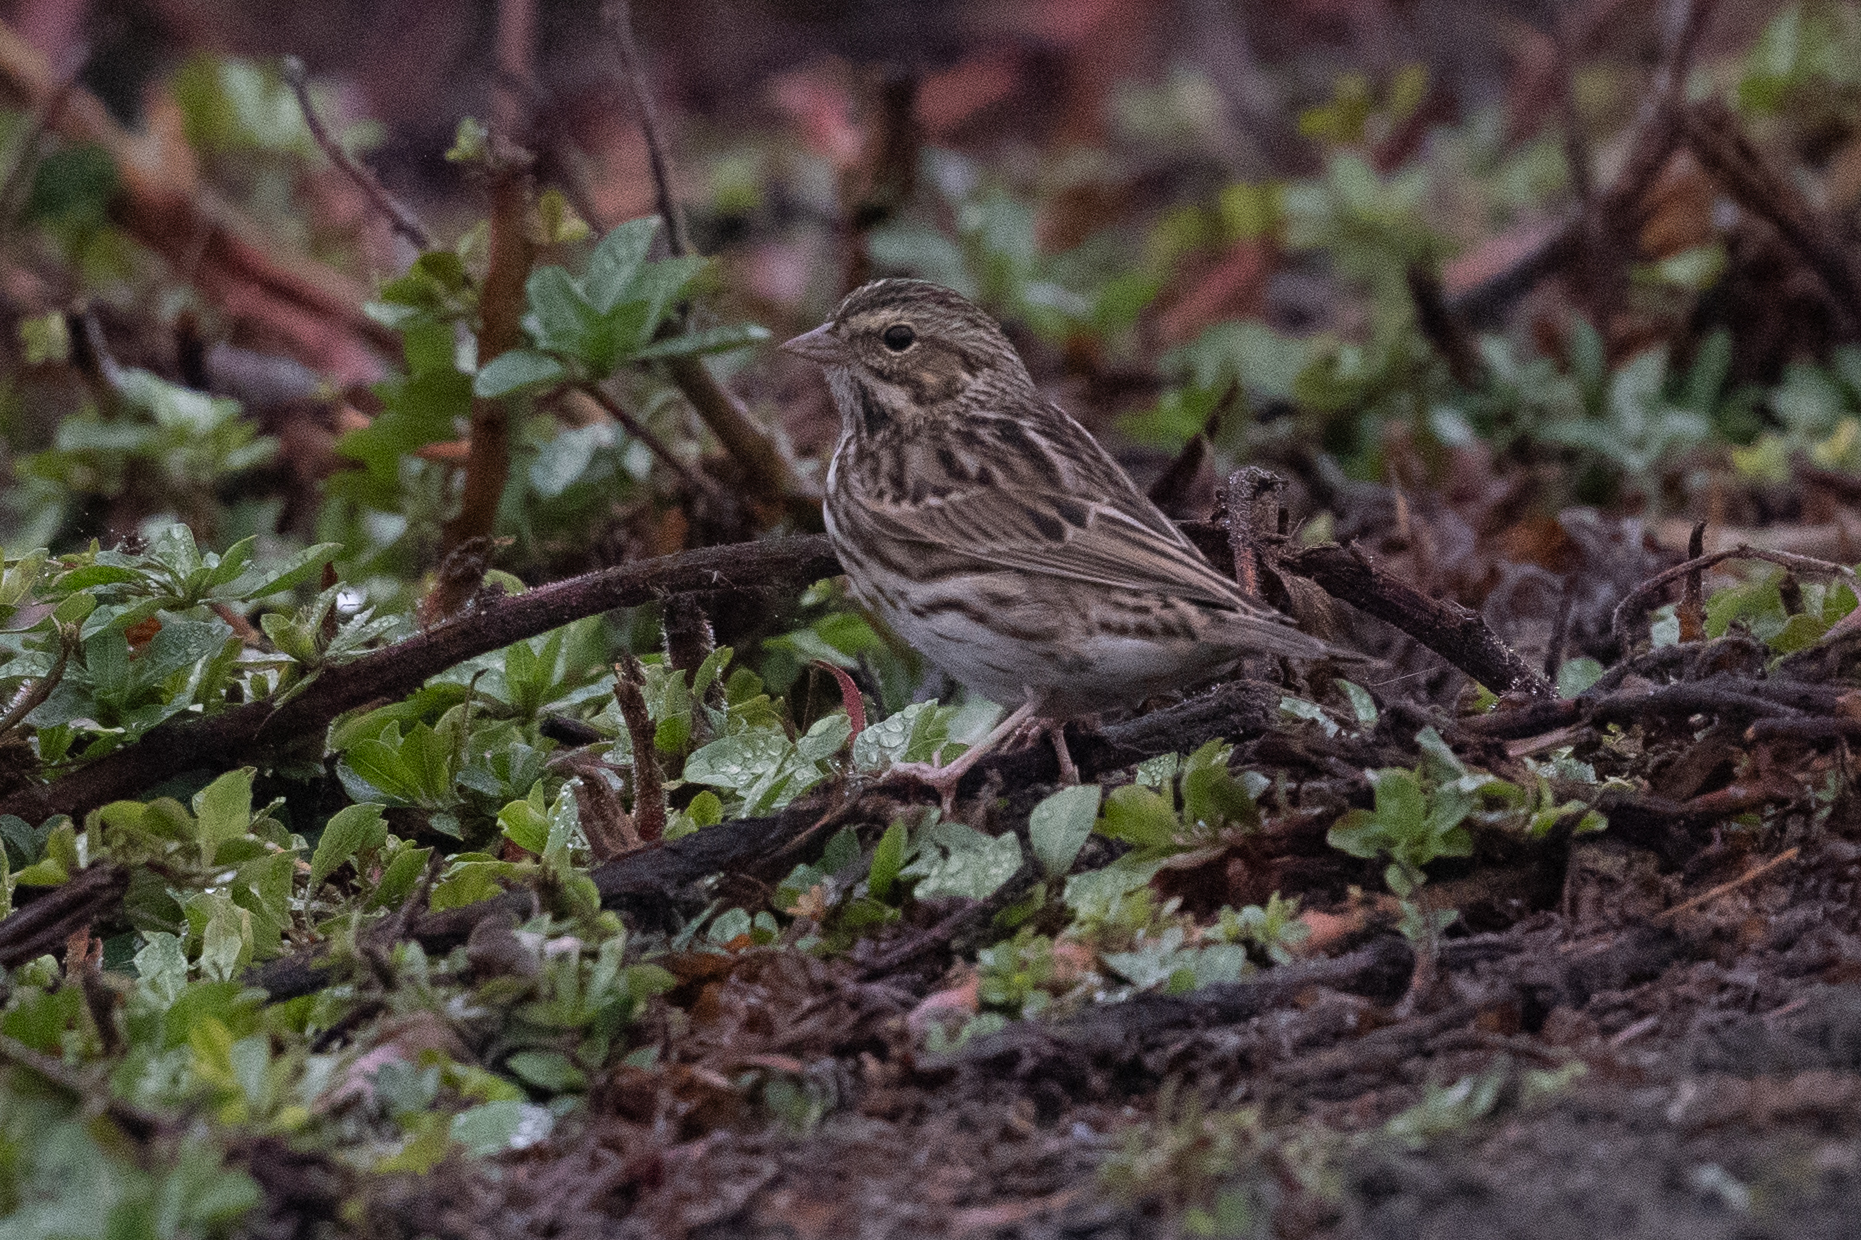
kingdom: Animalia
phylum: Chordata
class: Aves
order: Passeriformes
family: Passerellidae
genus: Passerculus
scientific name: Passerculus sandwichensis
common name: Savannah sparrow
